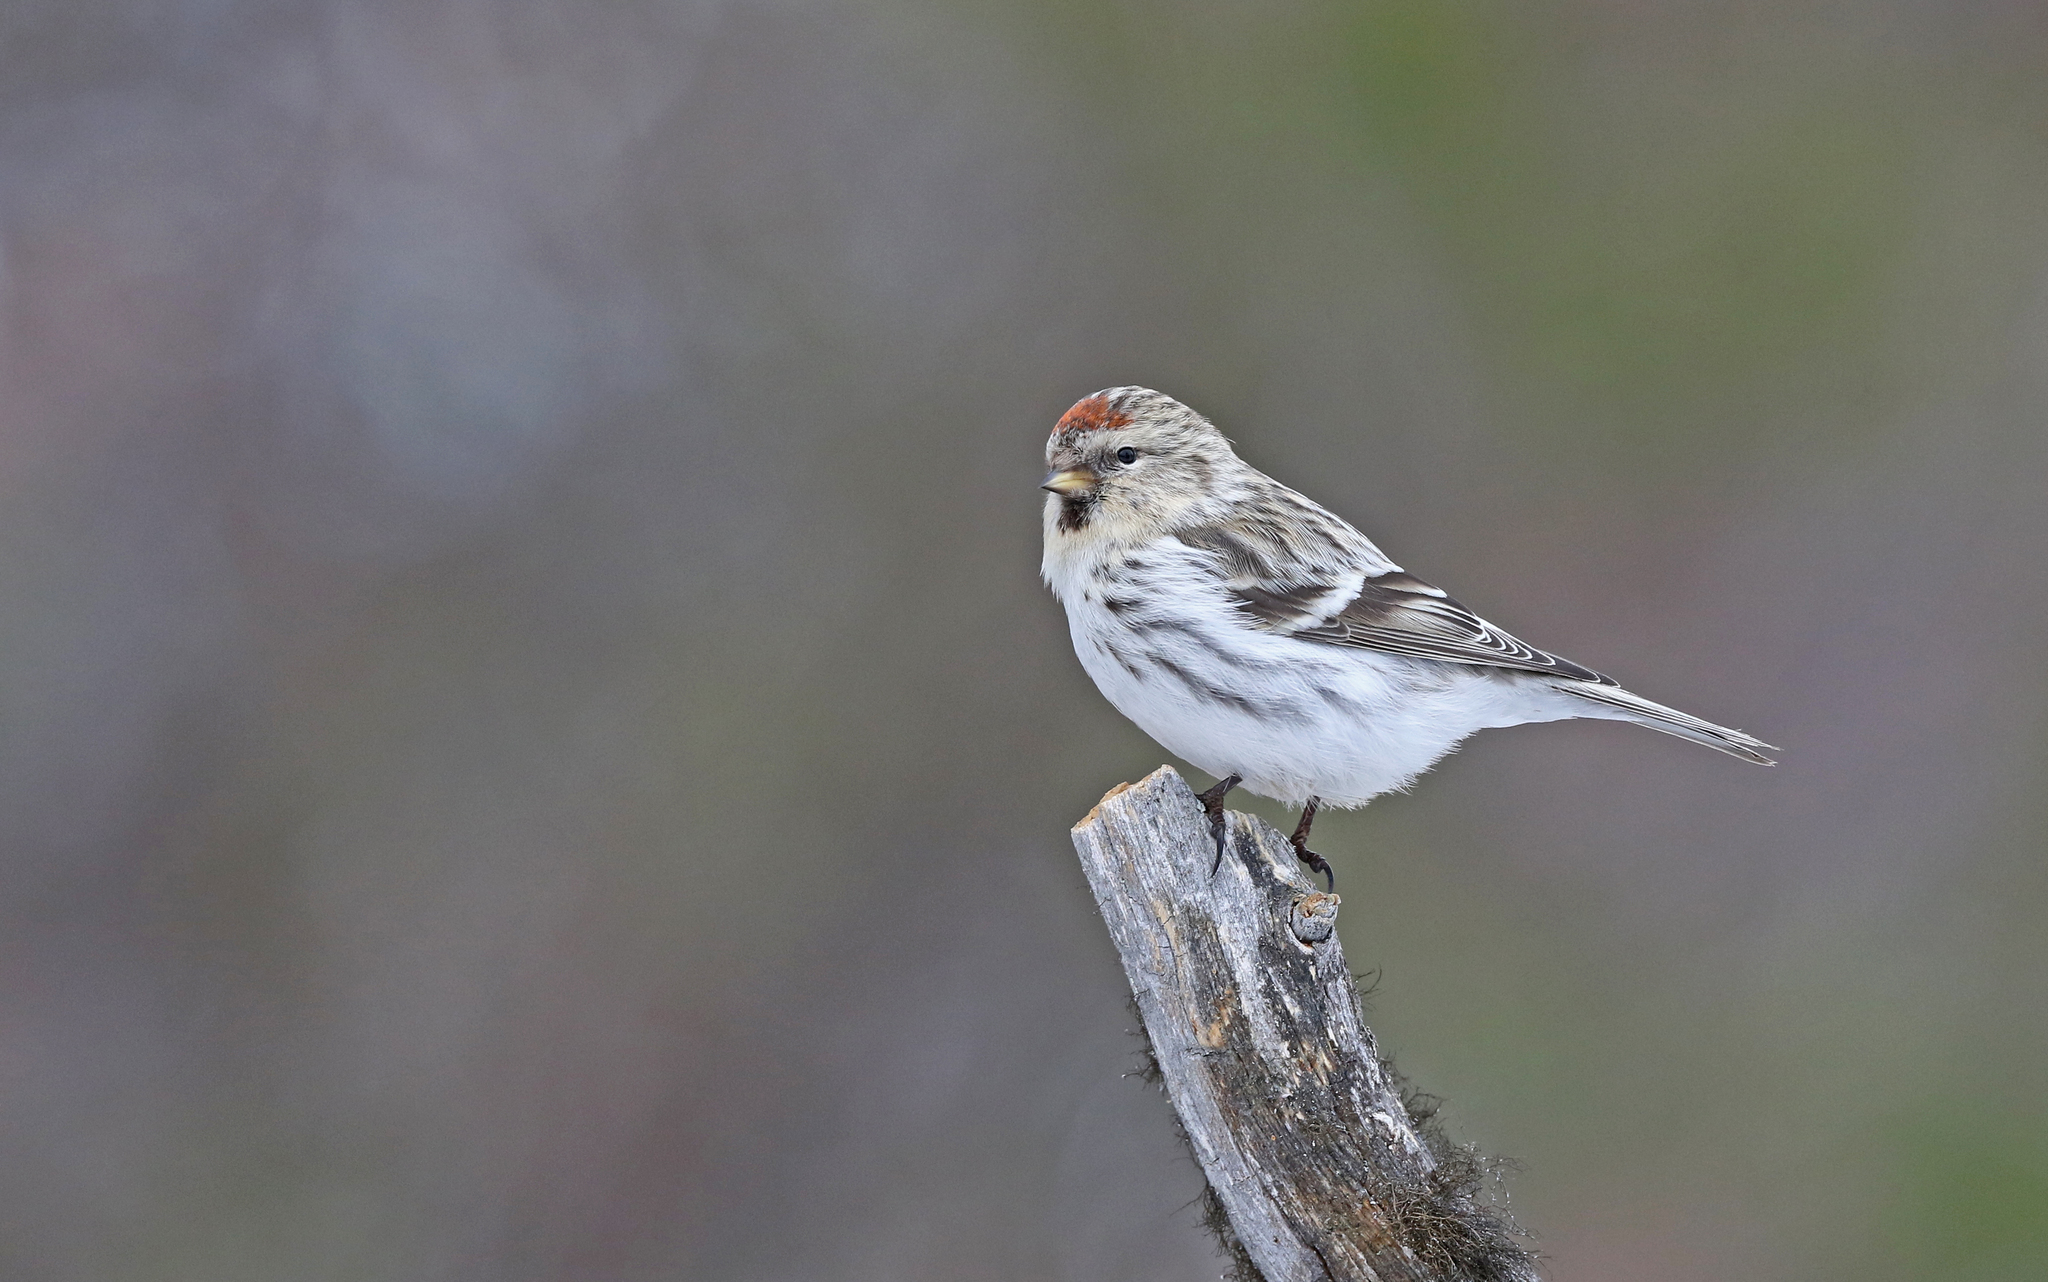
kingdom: Animalia
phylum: Chordata
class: Aves
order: Passeriformes
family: Fringillidae
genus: Acanthis
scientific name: Acanthis hornemanni
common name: Arctic redpoll
